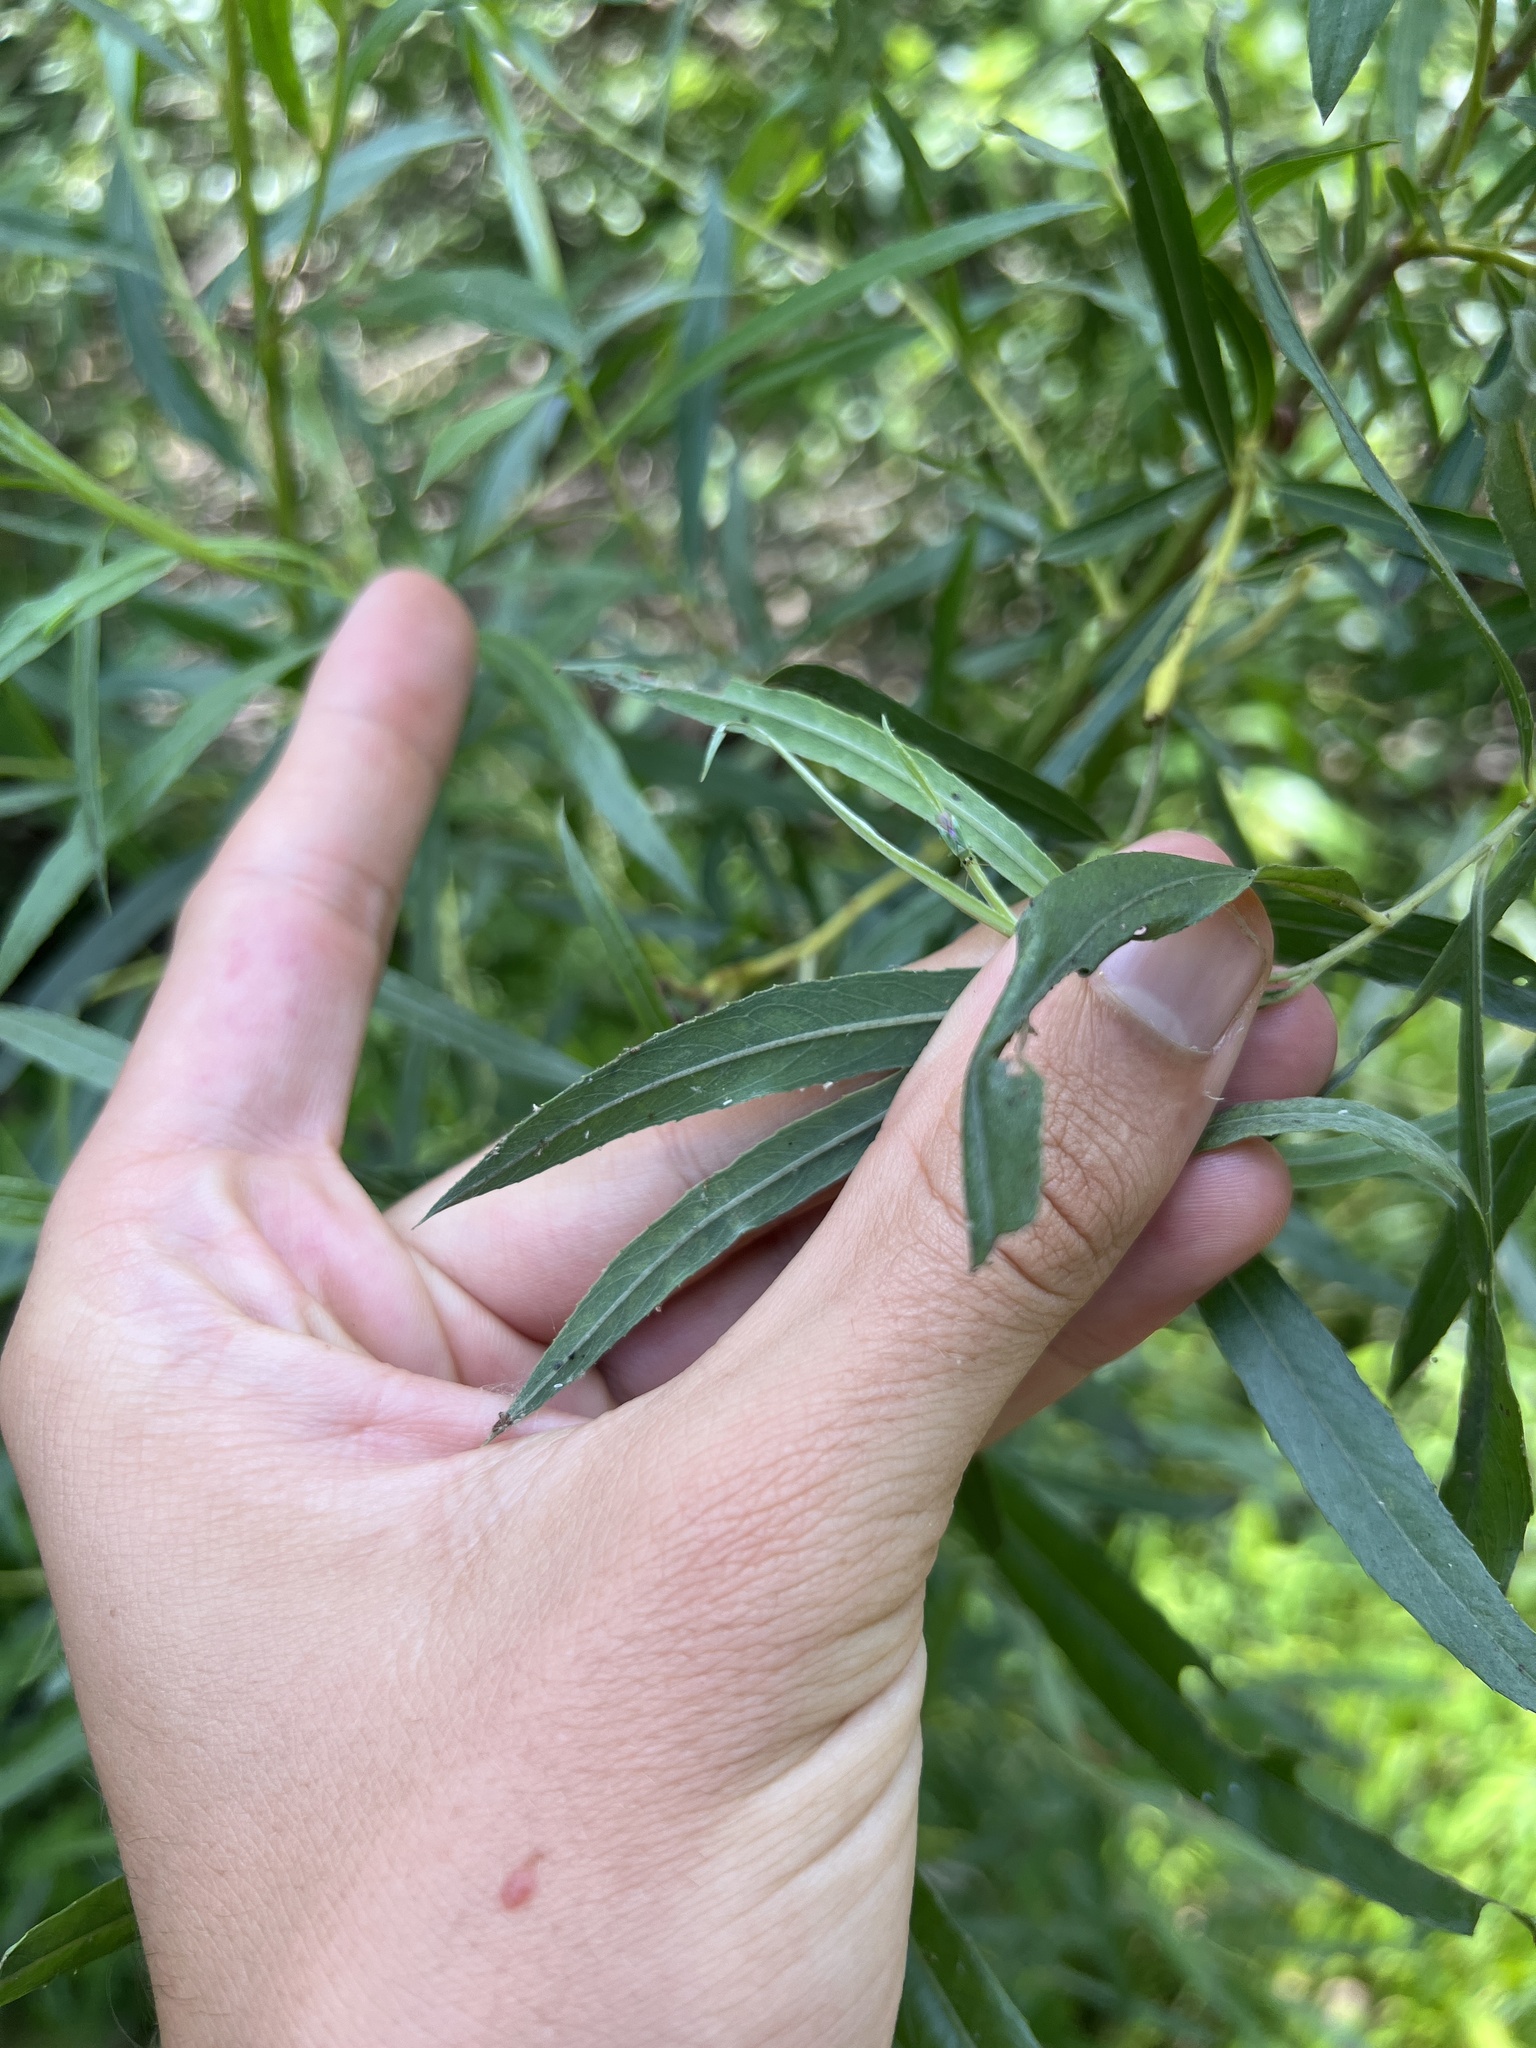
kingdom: Plantae
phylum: Tracheophyta
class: Magnoliopsida
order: Malpighiales
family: Salicaceae
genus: Salix
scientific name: Salix nigra
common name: Black willow
